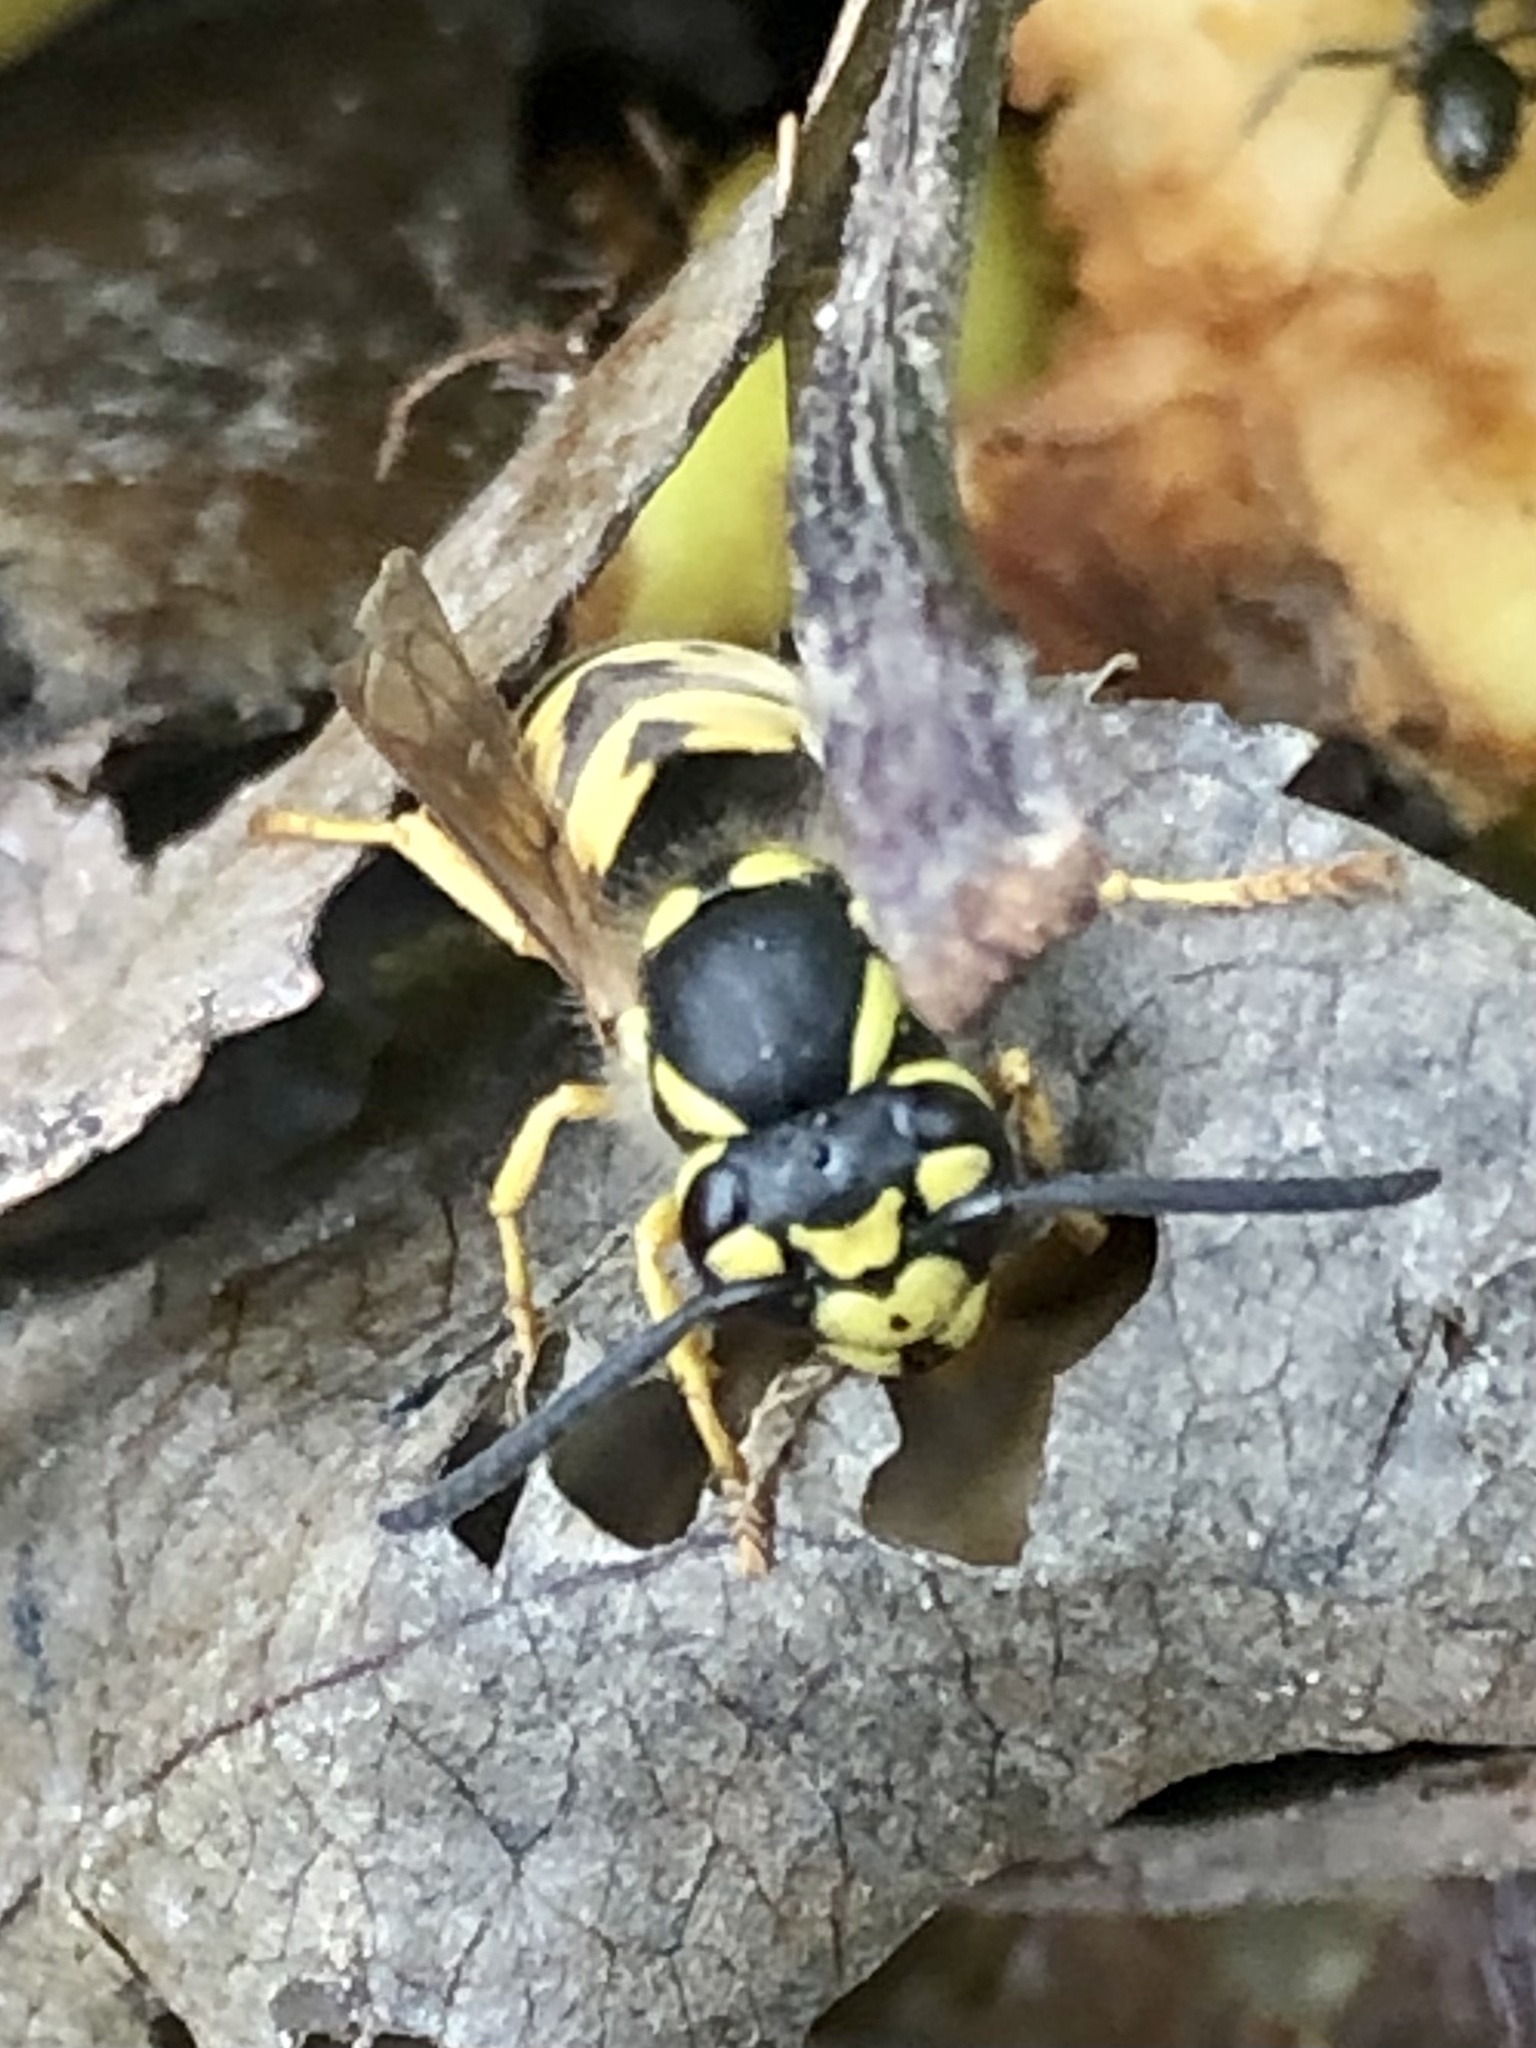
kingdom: Animalia
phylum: Arthropoda
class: Insecta
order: Hymenoptera
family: Vespidae
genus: Vespula
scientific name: Vespula germanica
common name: German wasp
